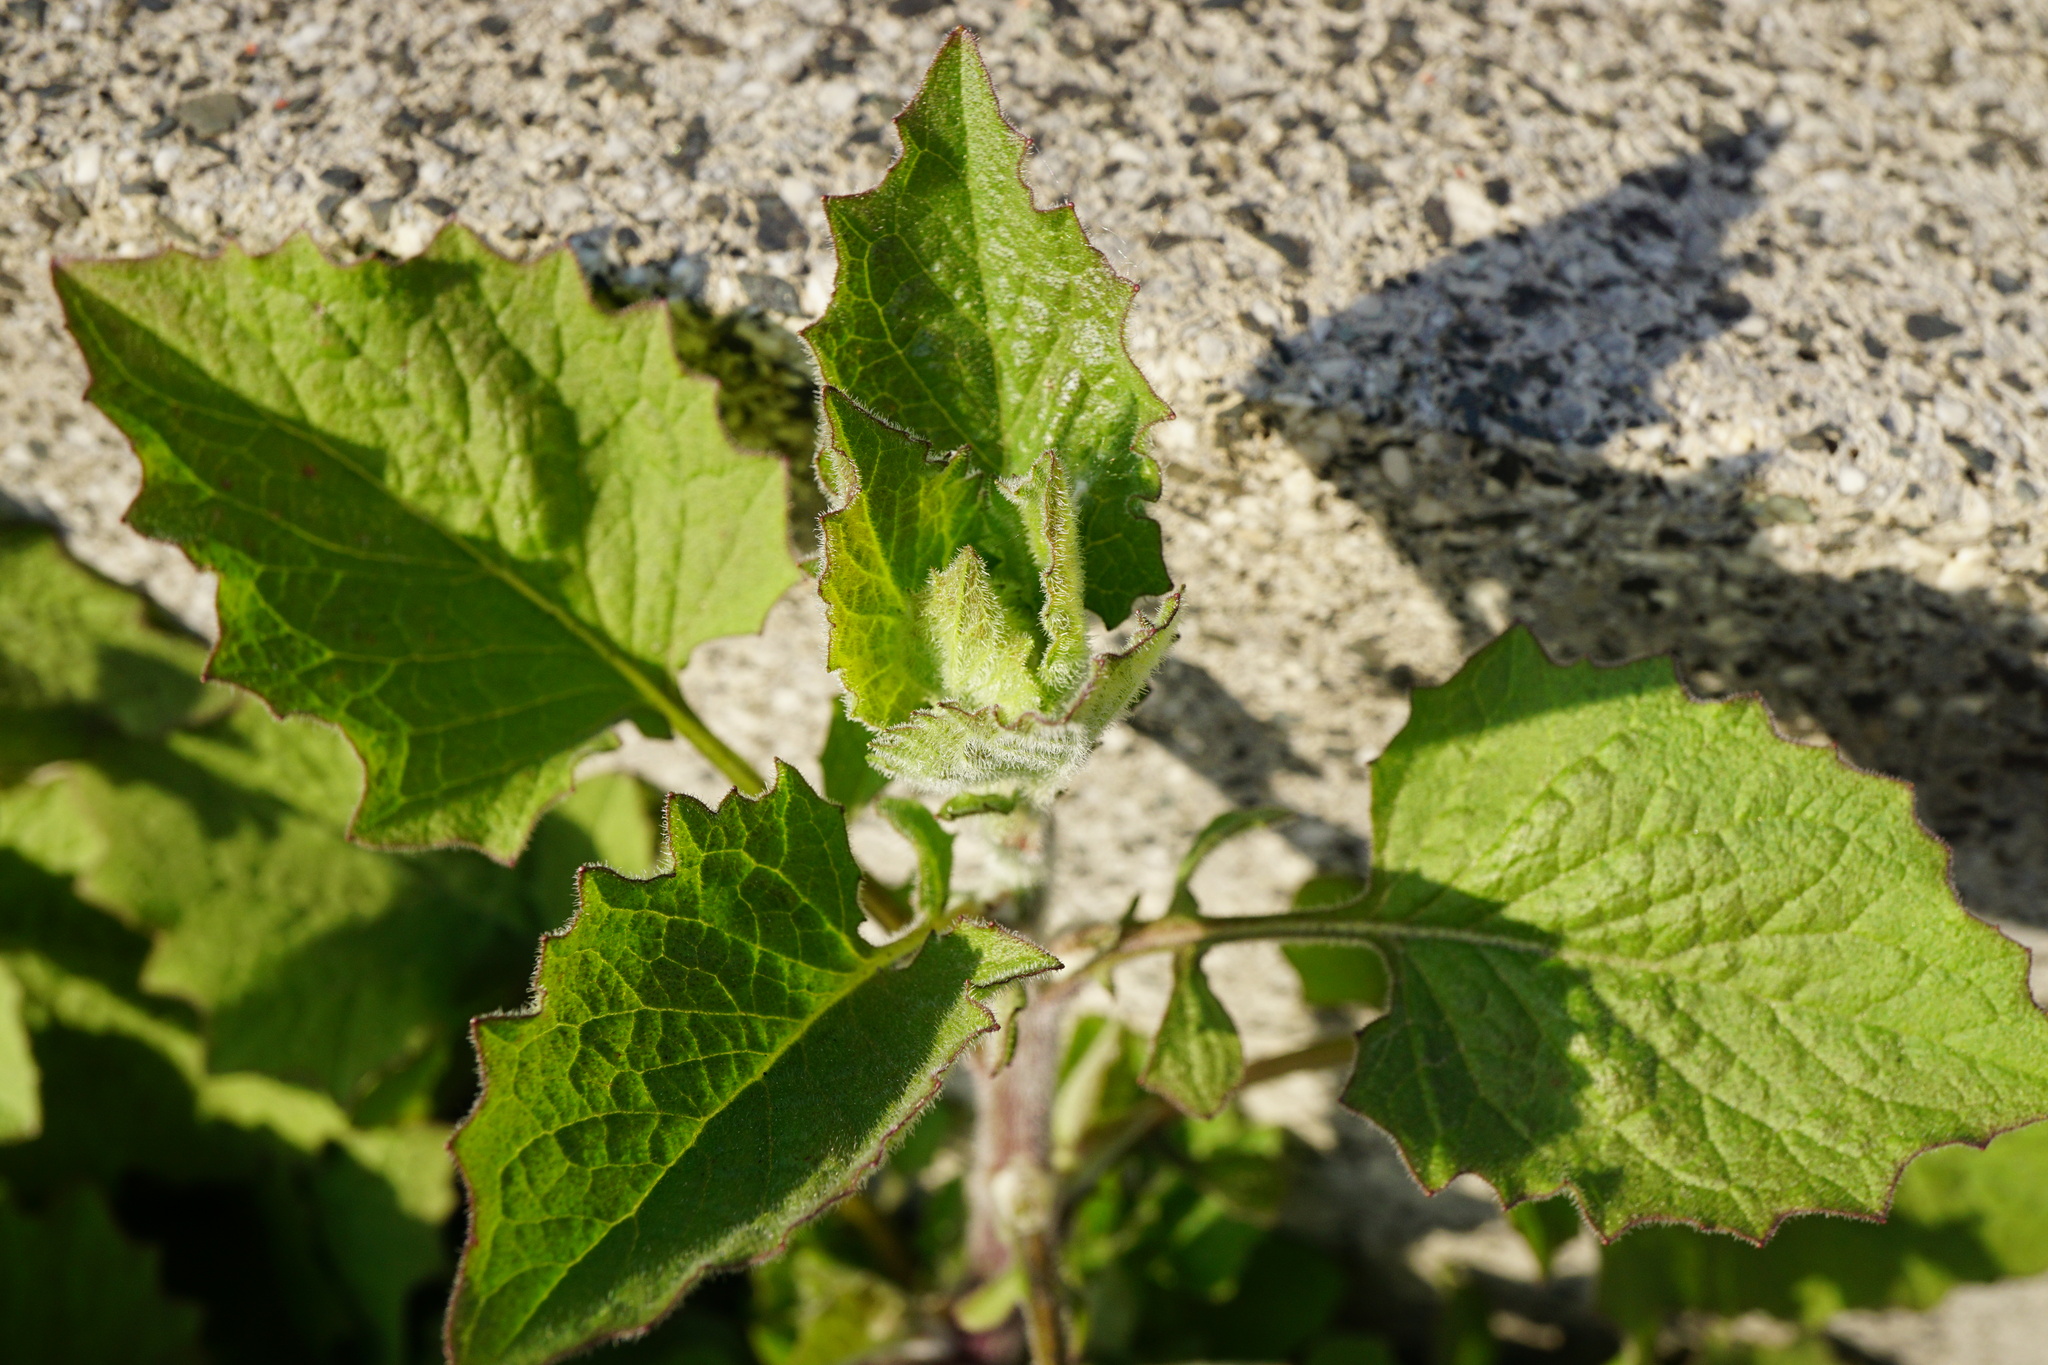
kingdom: Plantae
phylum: Tracheophyta
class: Magnoliopsida
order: Asterales
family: Asteraceae
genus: Lapsana
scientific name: Lapsana communis
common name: Nipplewort
